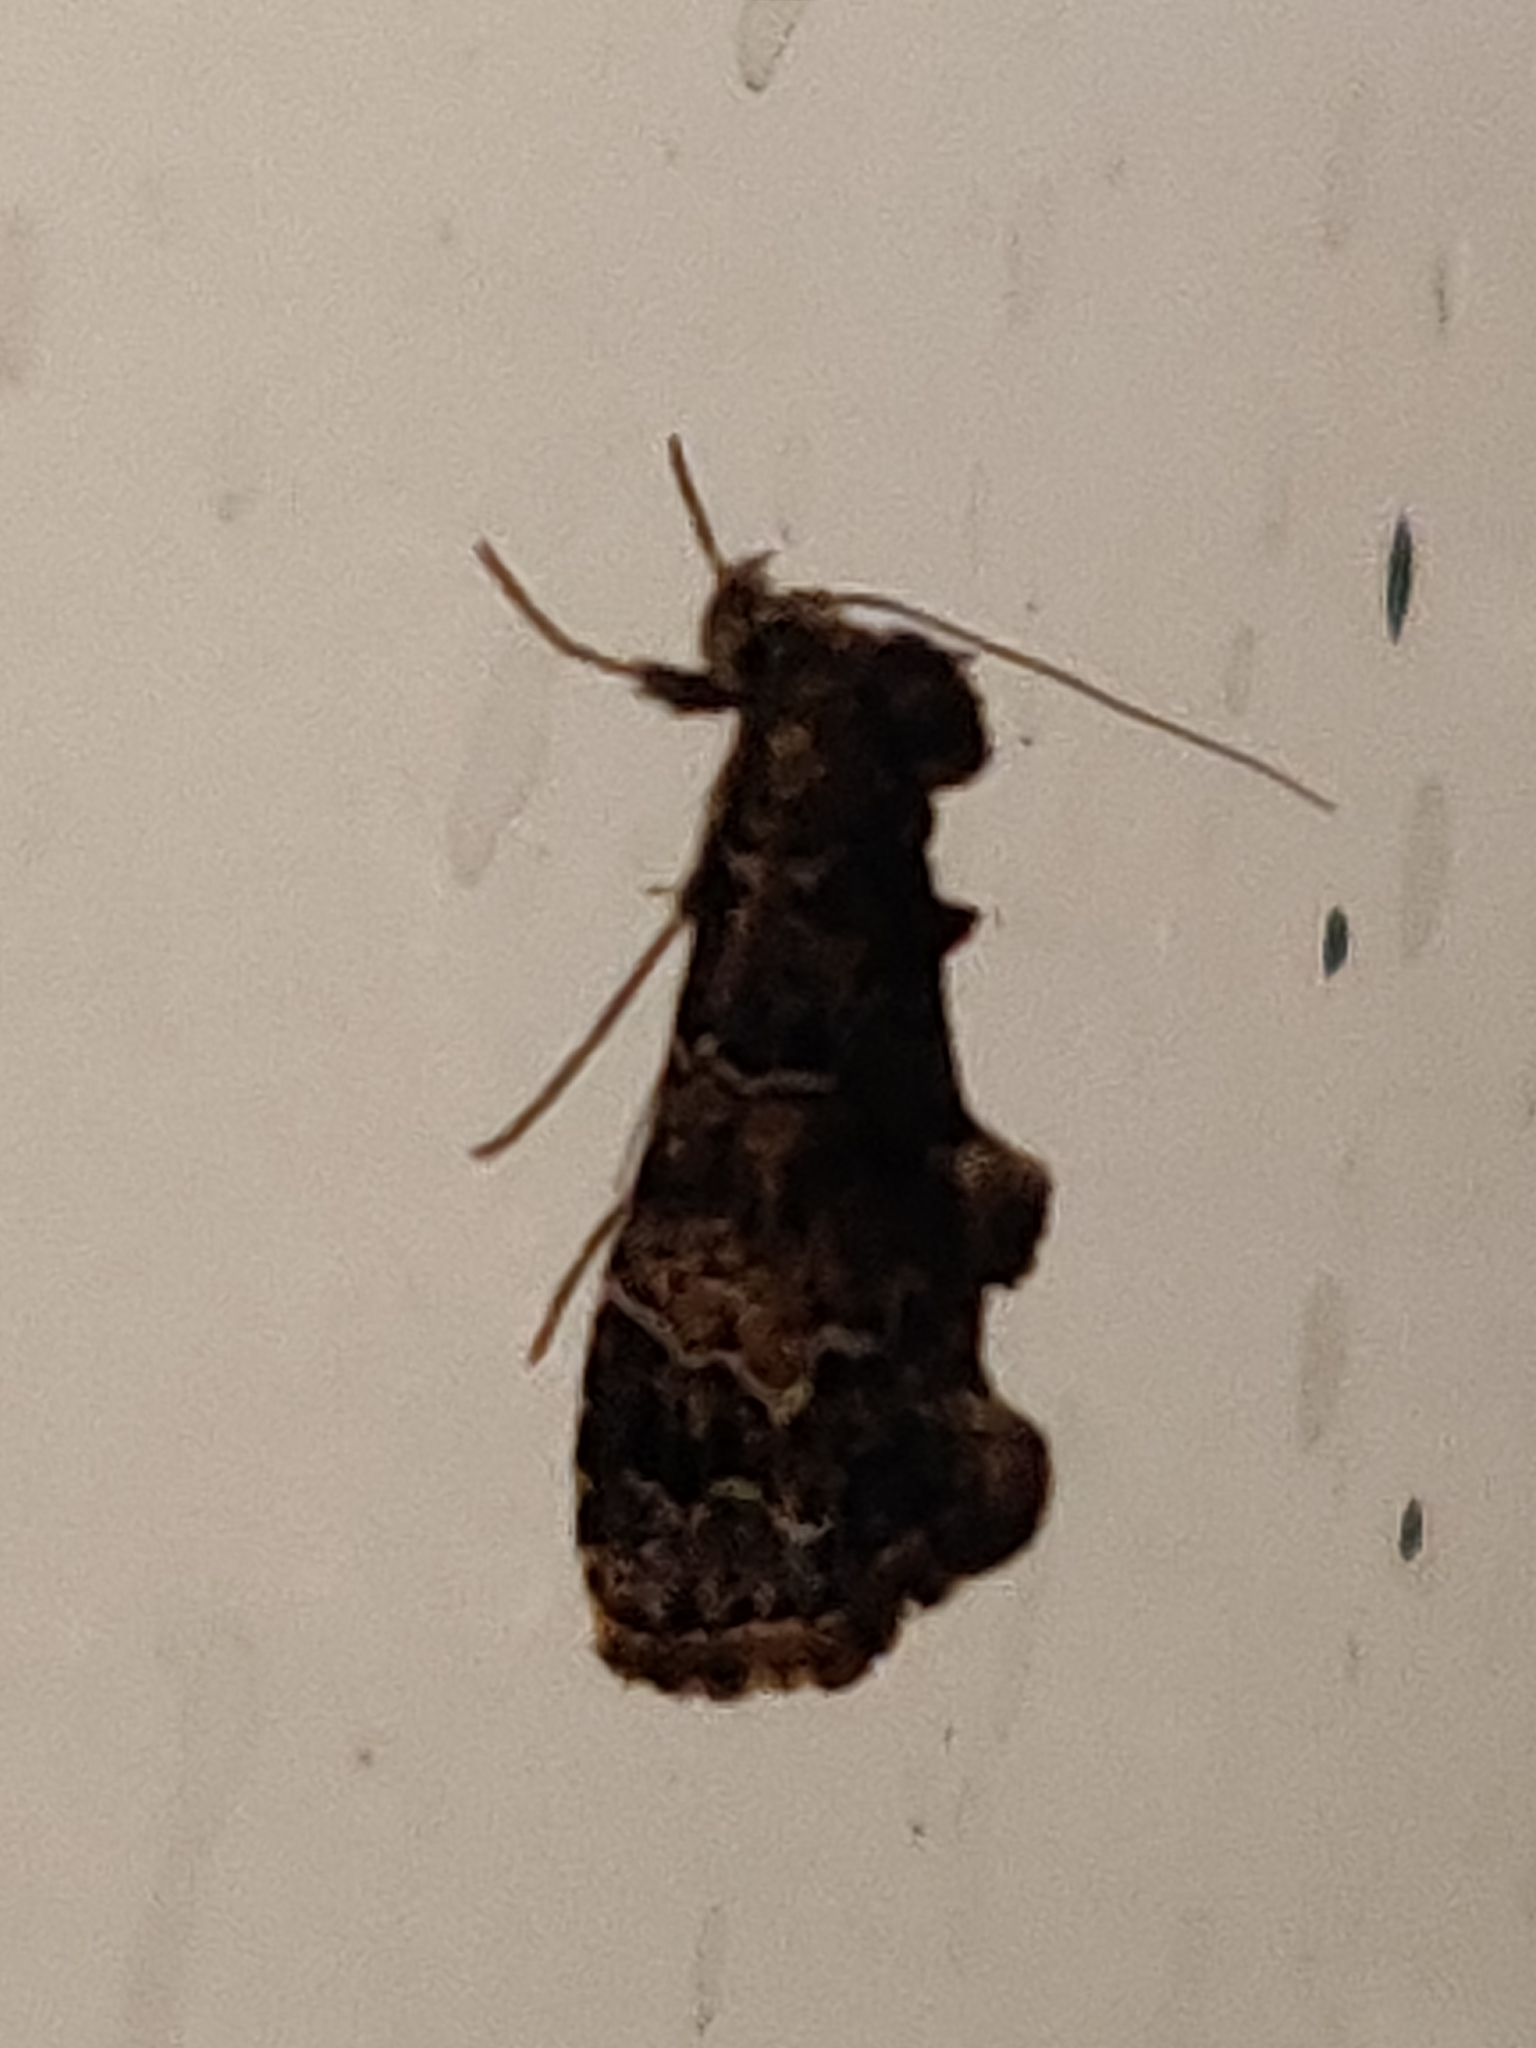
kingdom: Animalia
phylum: Arthropoda
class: Insecta
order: Lepidoptera
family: Erebidae
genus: Arrade
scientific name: Arrade destituta
